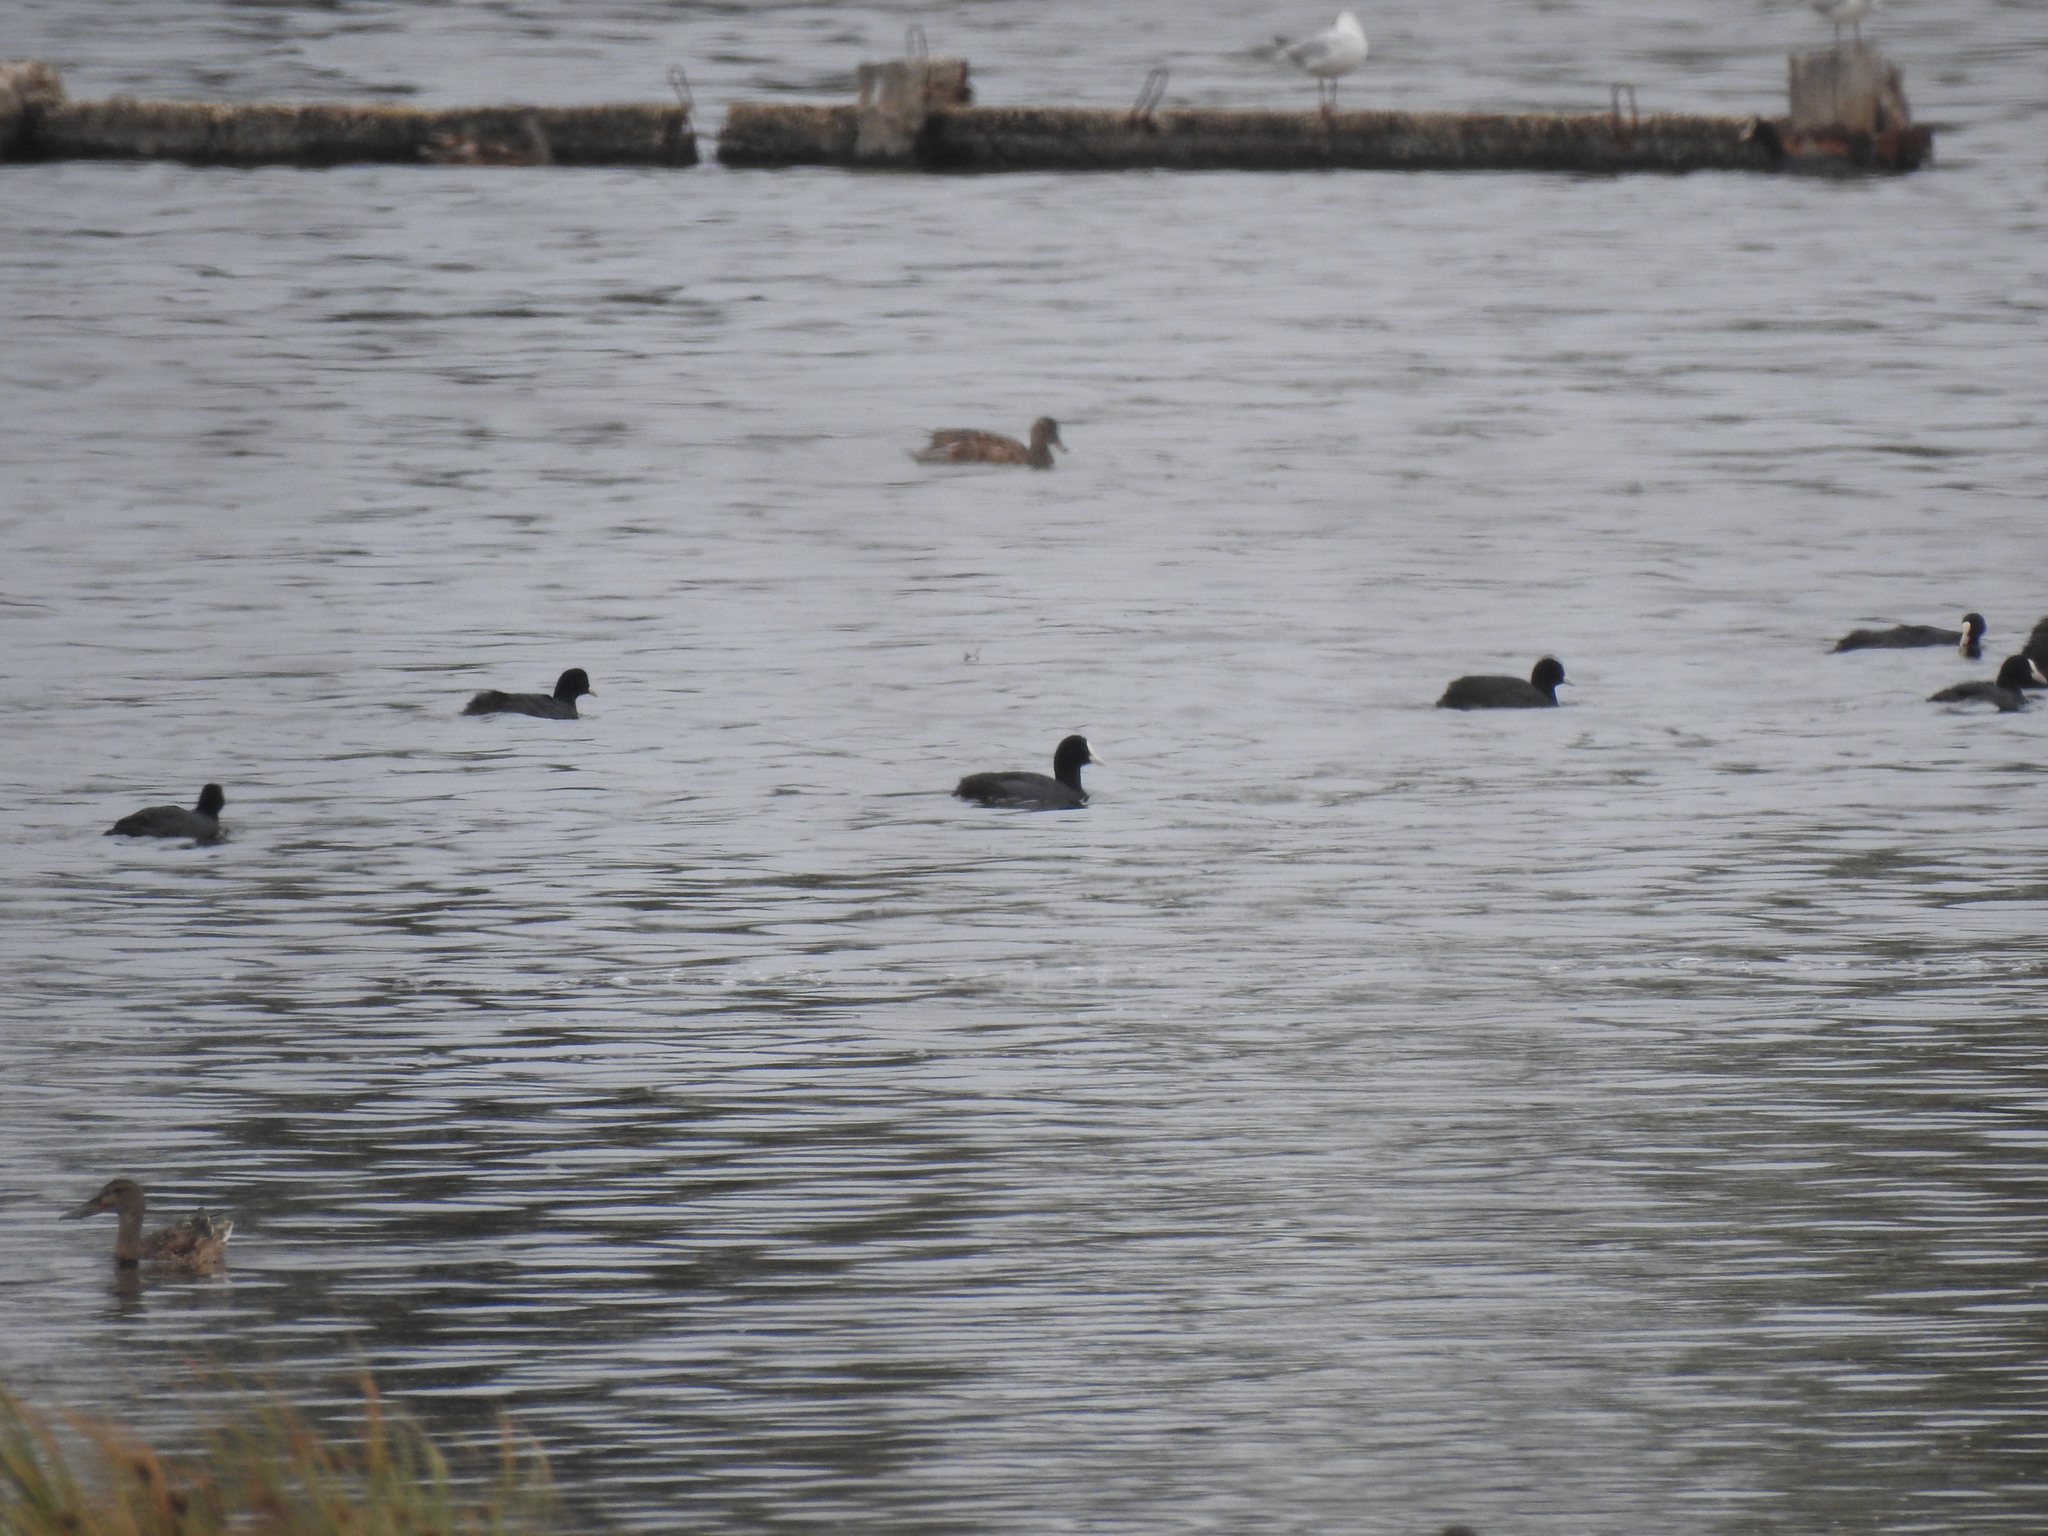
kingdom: Animalia
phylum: Chordata
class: Aves
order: Gruiformes
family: Rallidae
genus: Fulica
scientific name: Fulica atra
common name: Eurasian coot
